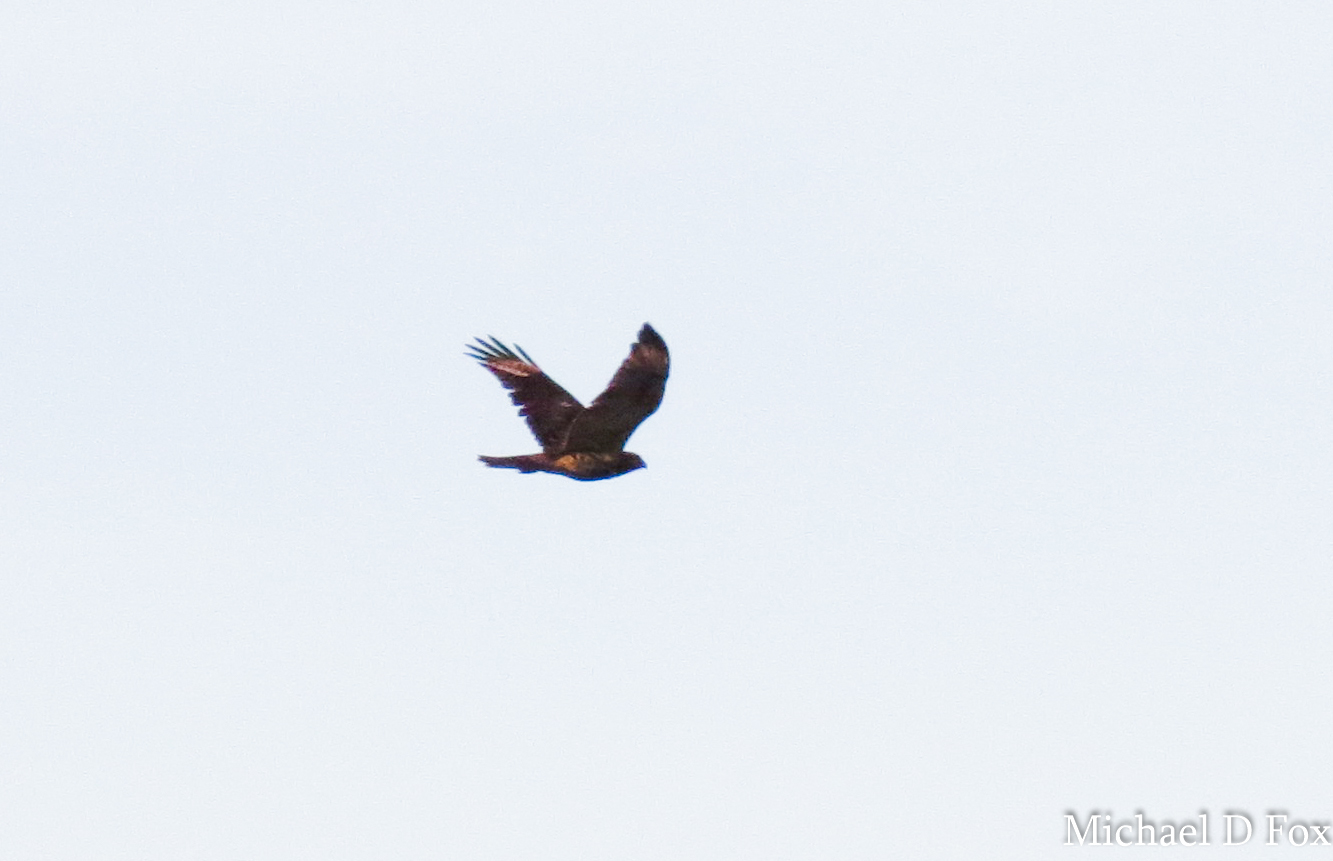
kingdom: Animalia
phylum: Chordata
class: Aves
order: Accipitriformes
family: Accipitridae
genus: Buteo
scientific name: Buteo lineatus
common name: Red-shouldered hawk
